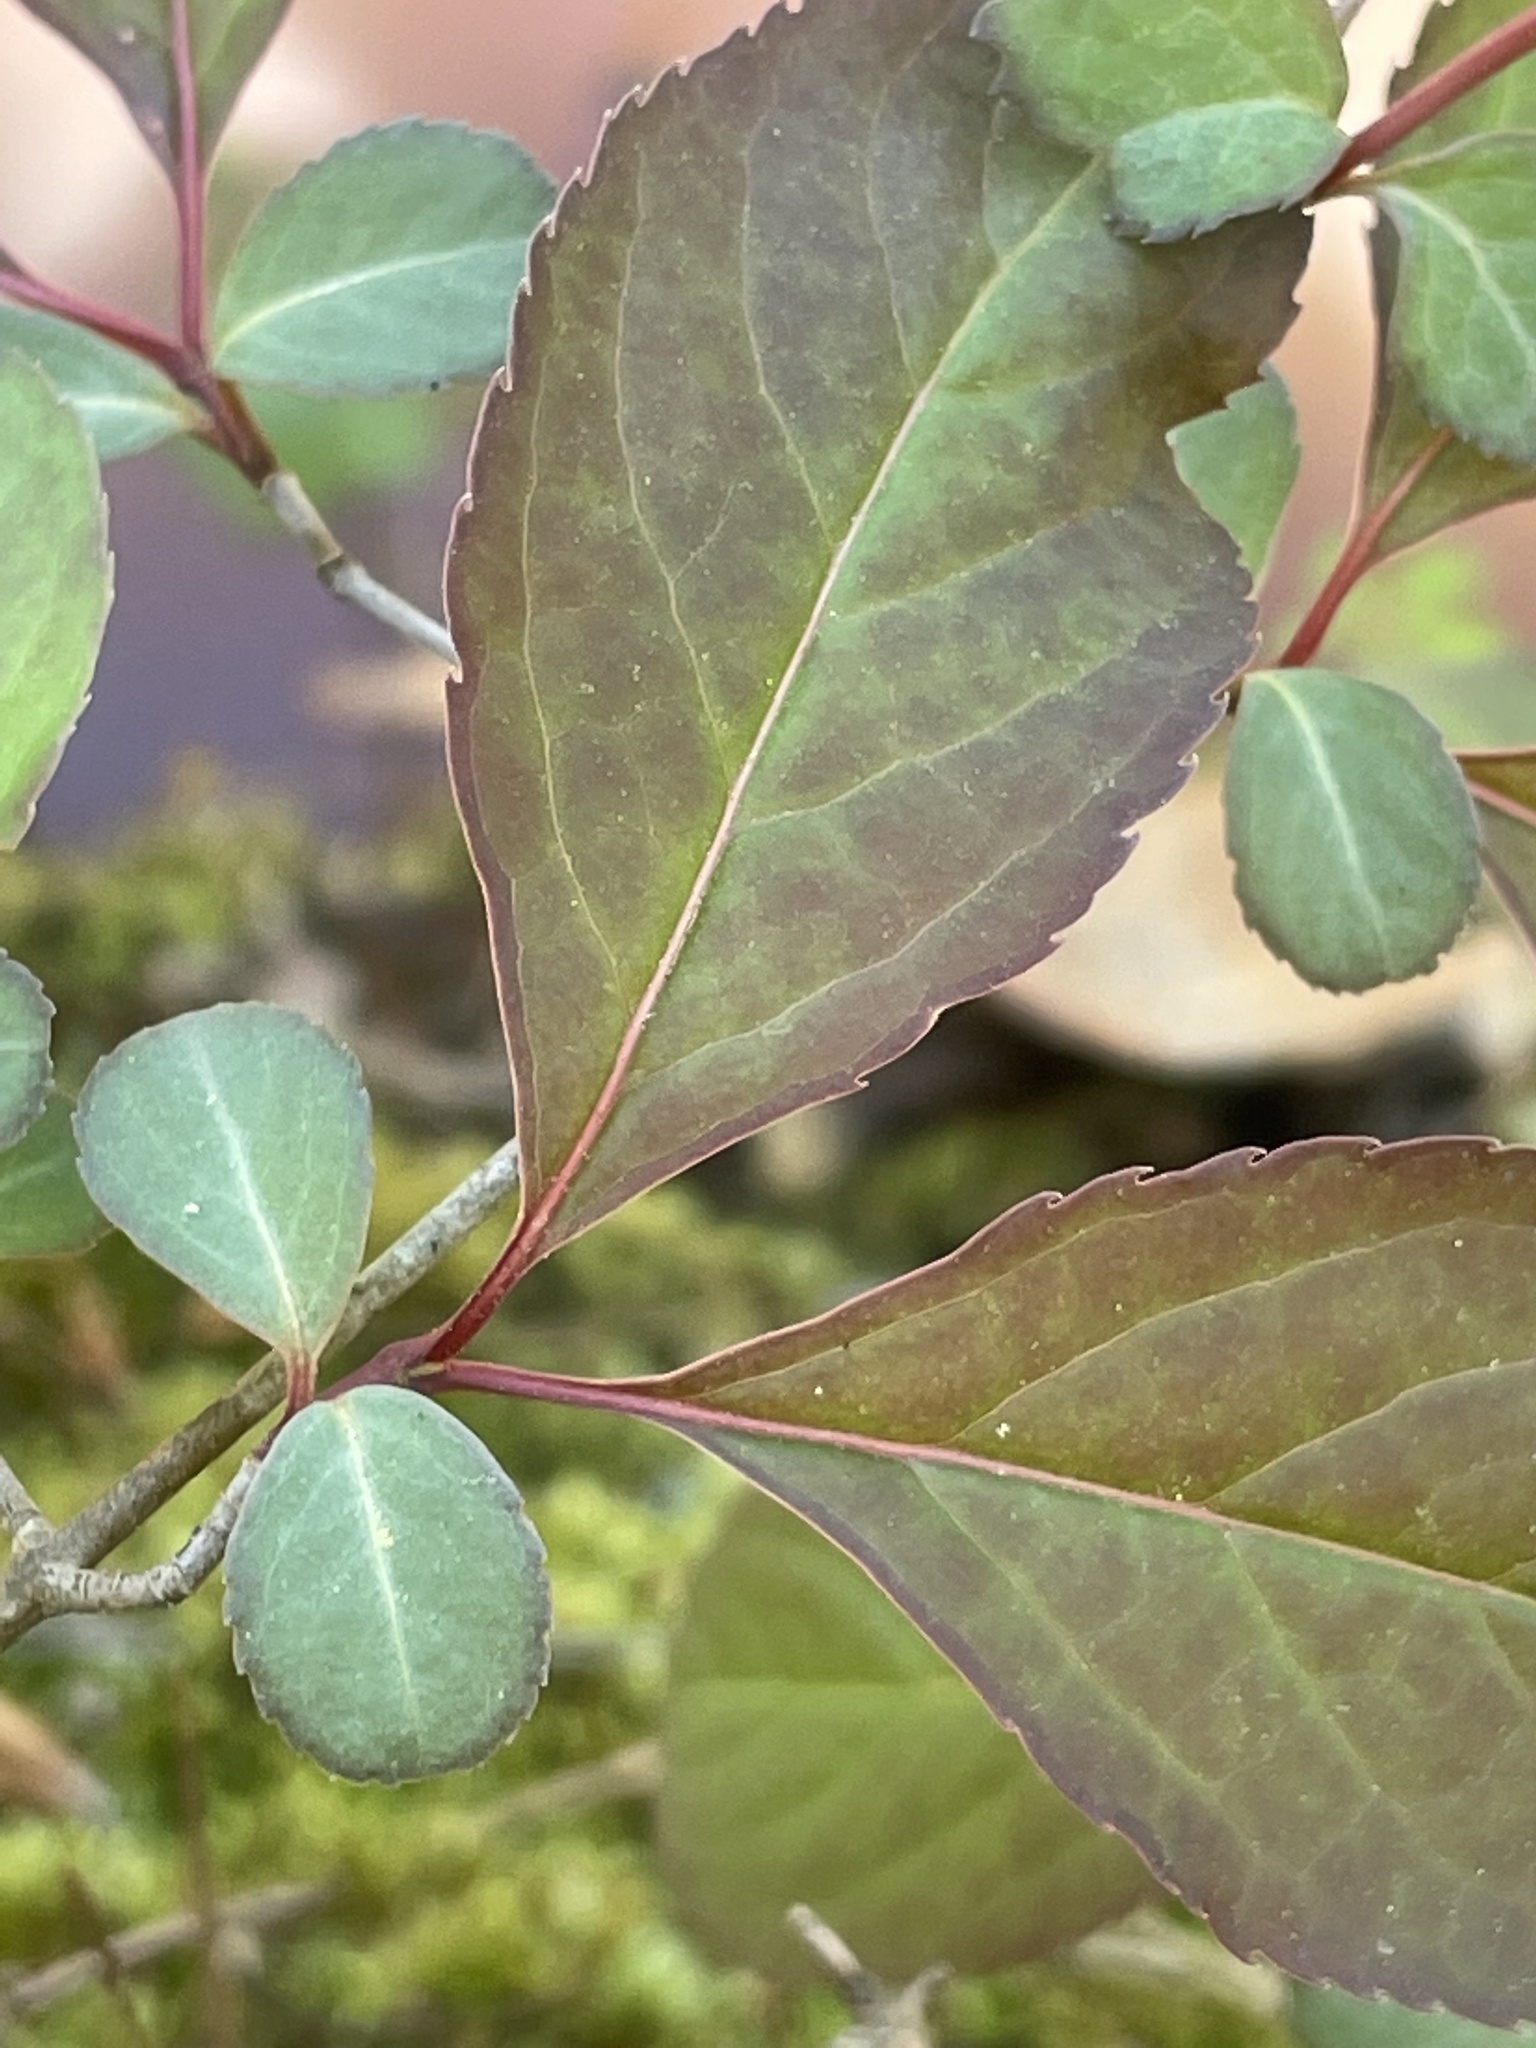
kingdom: Plantae
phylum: Tracheophyta
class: Magnoliopsida
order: Dipsacales
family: Viburnaceae
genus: Viburnum
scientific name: Viburnum prunifolium
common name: Black haw
